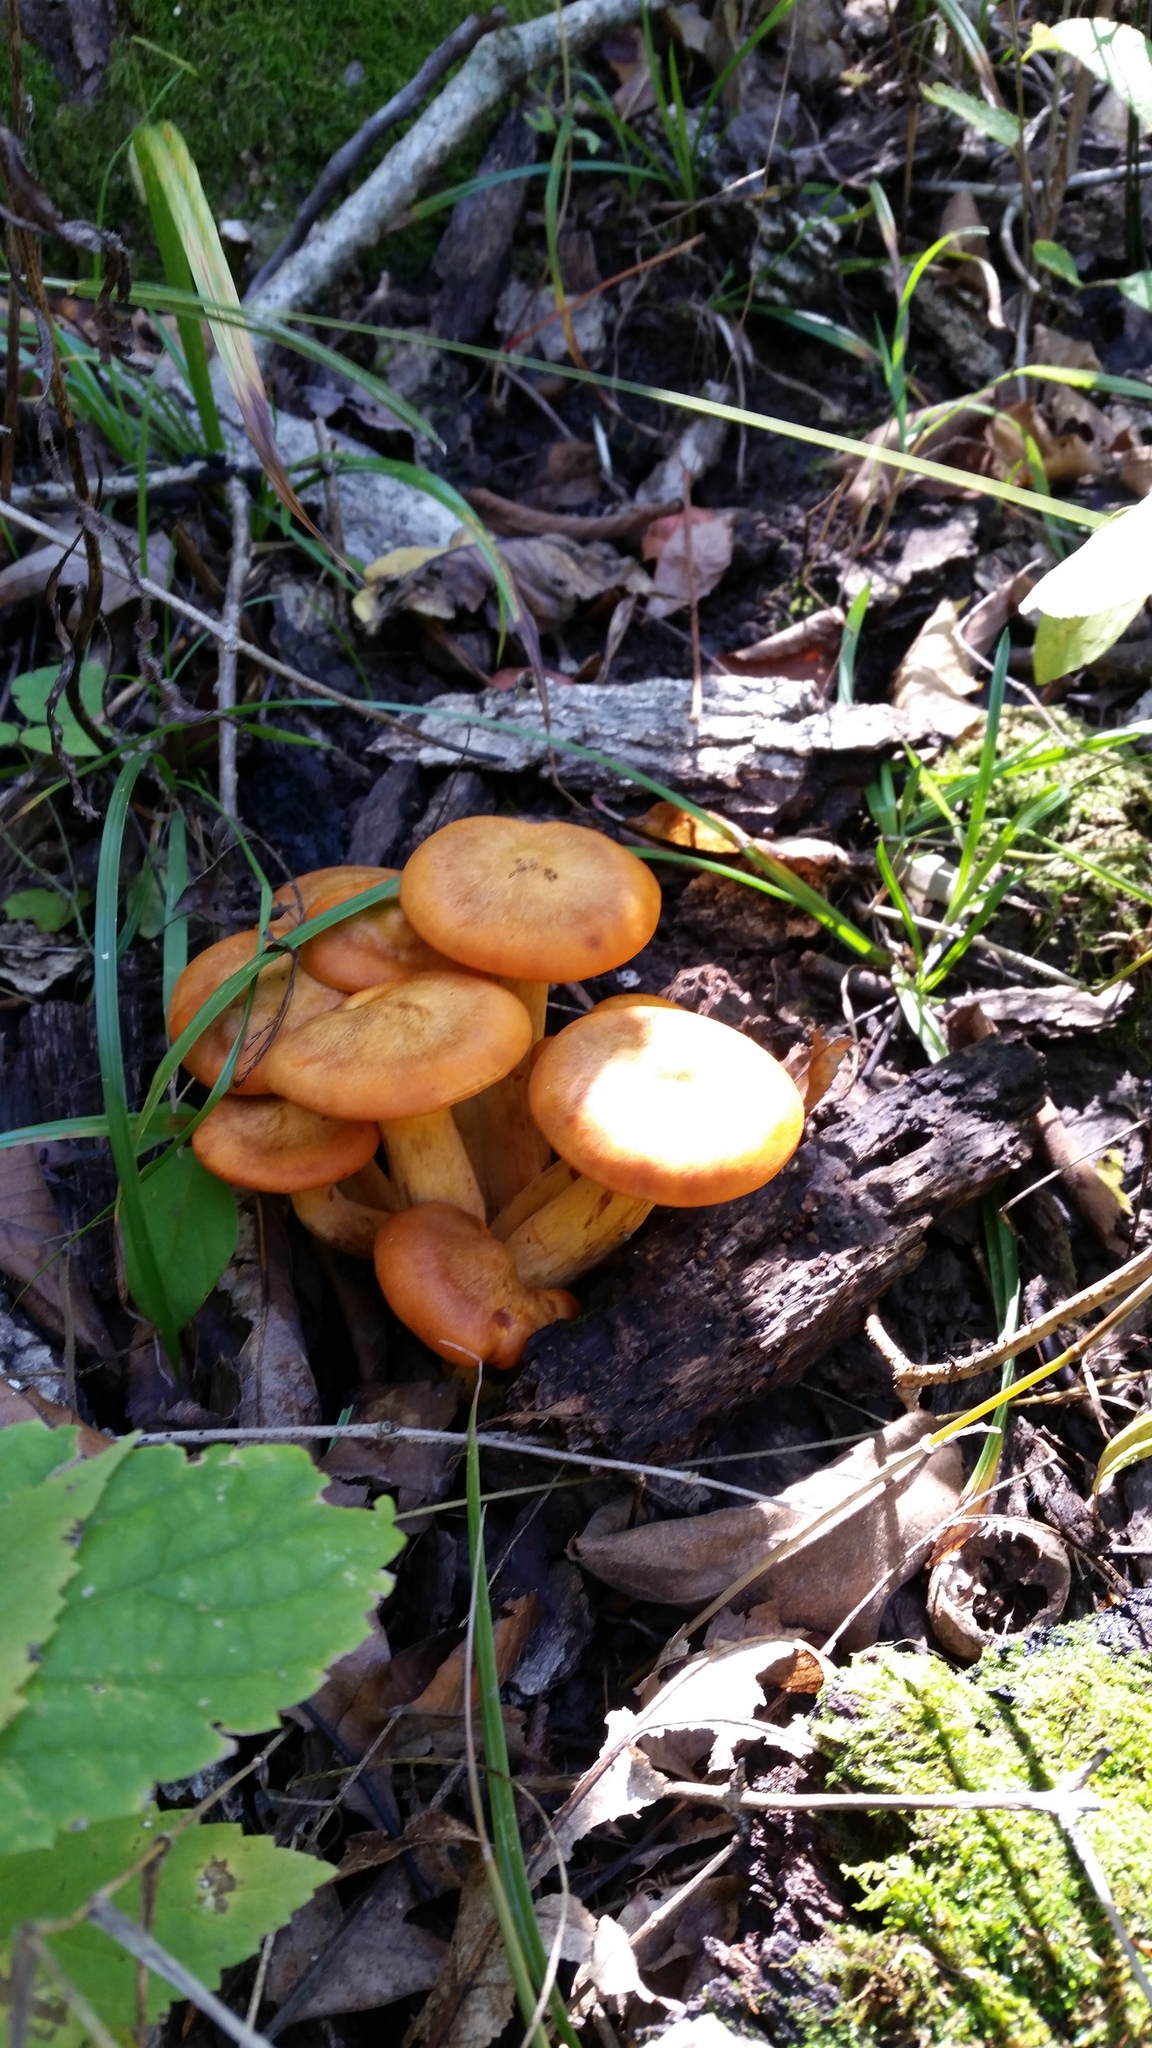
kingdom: Fungi
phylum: Basidiomycota
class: Agaricomycetes
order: Agaricales
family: Omphalotaceae
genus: Omphalotus
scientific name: Omphalotus illudens
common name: Jack o lantern
